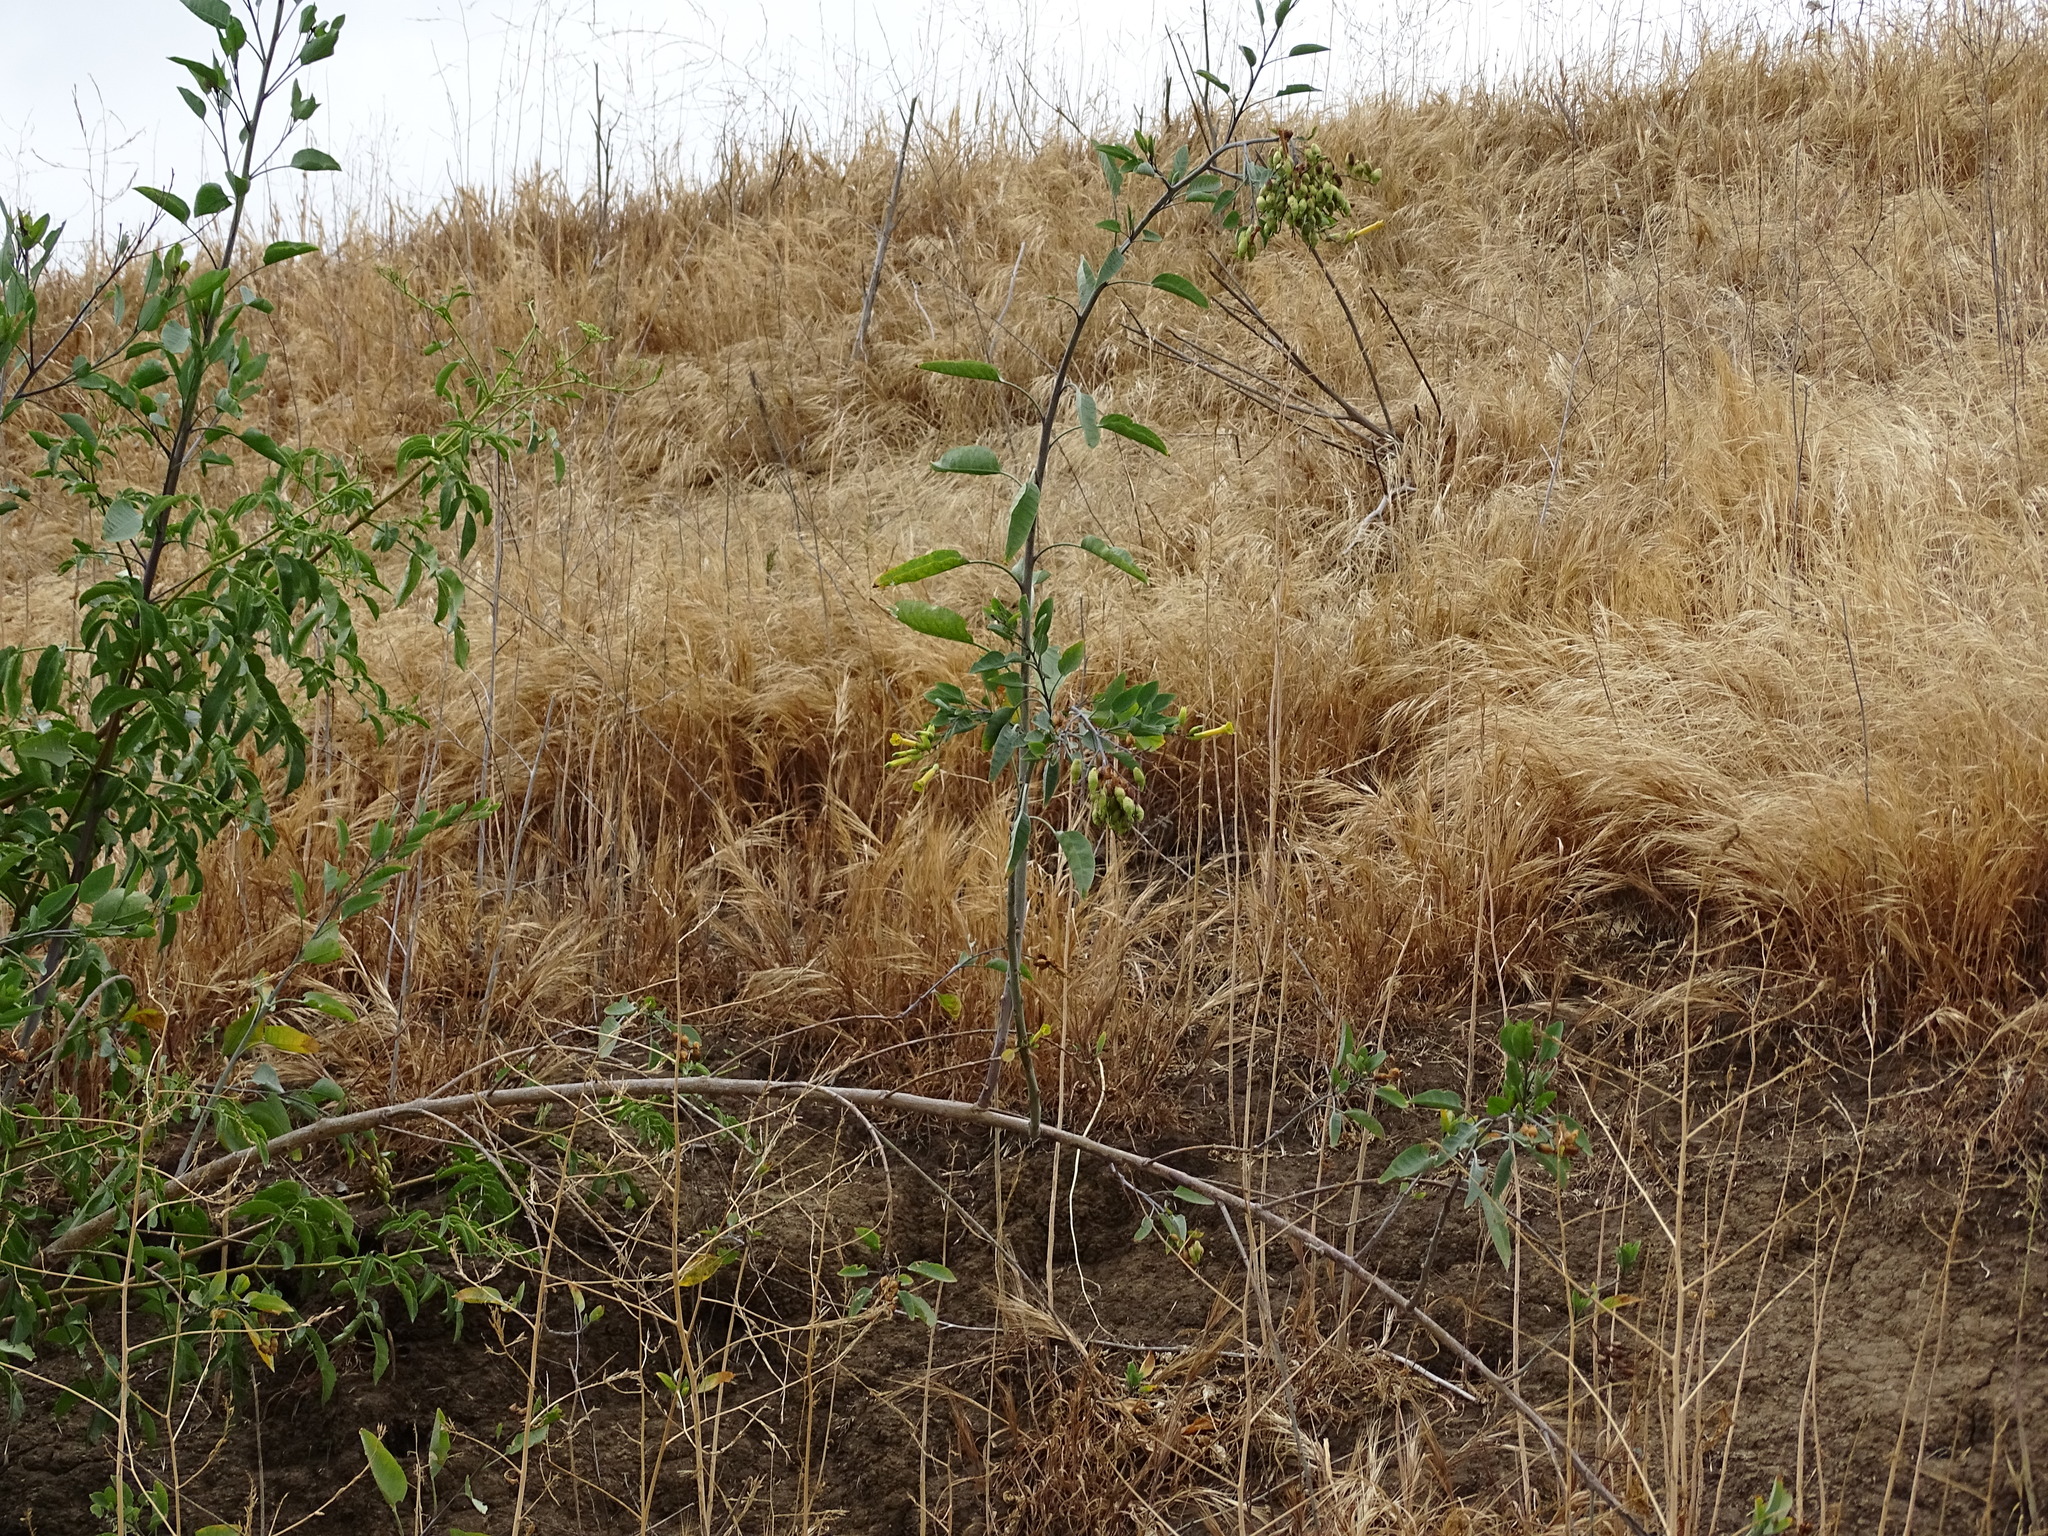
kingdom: Plantae
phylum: Tracheophyta
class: Magnoliopsida
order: Solanales
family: Solanaceae
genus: Nicotiana
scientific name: Nicotiana glauca
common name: Tree tobacco
